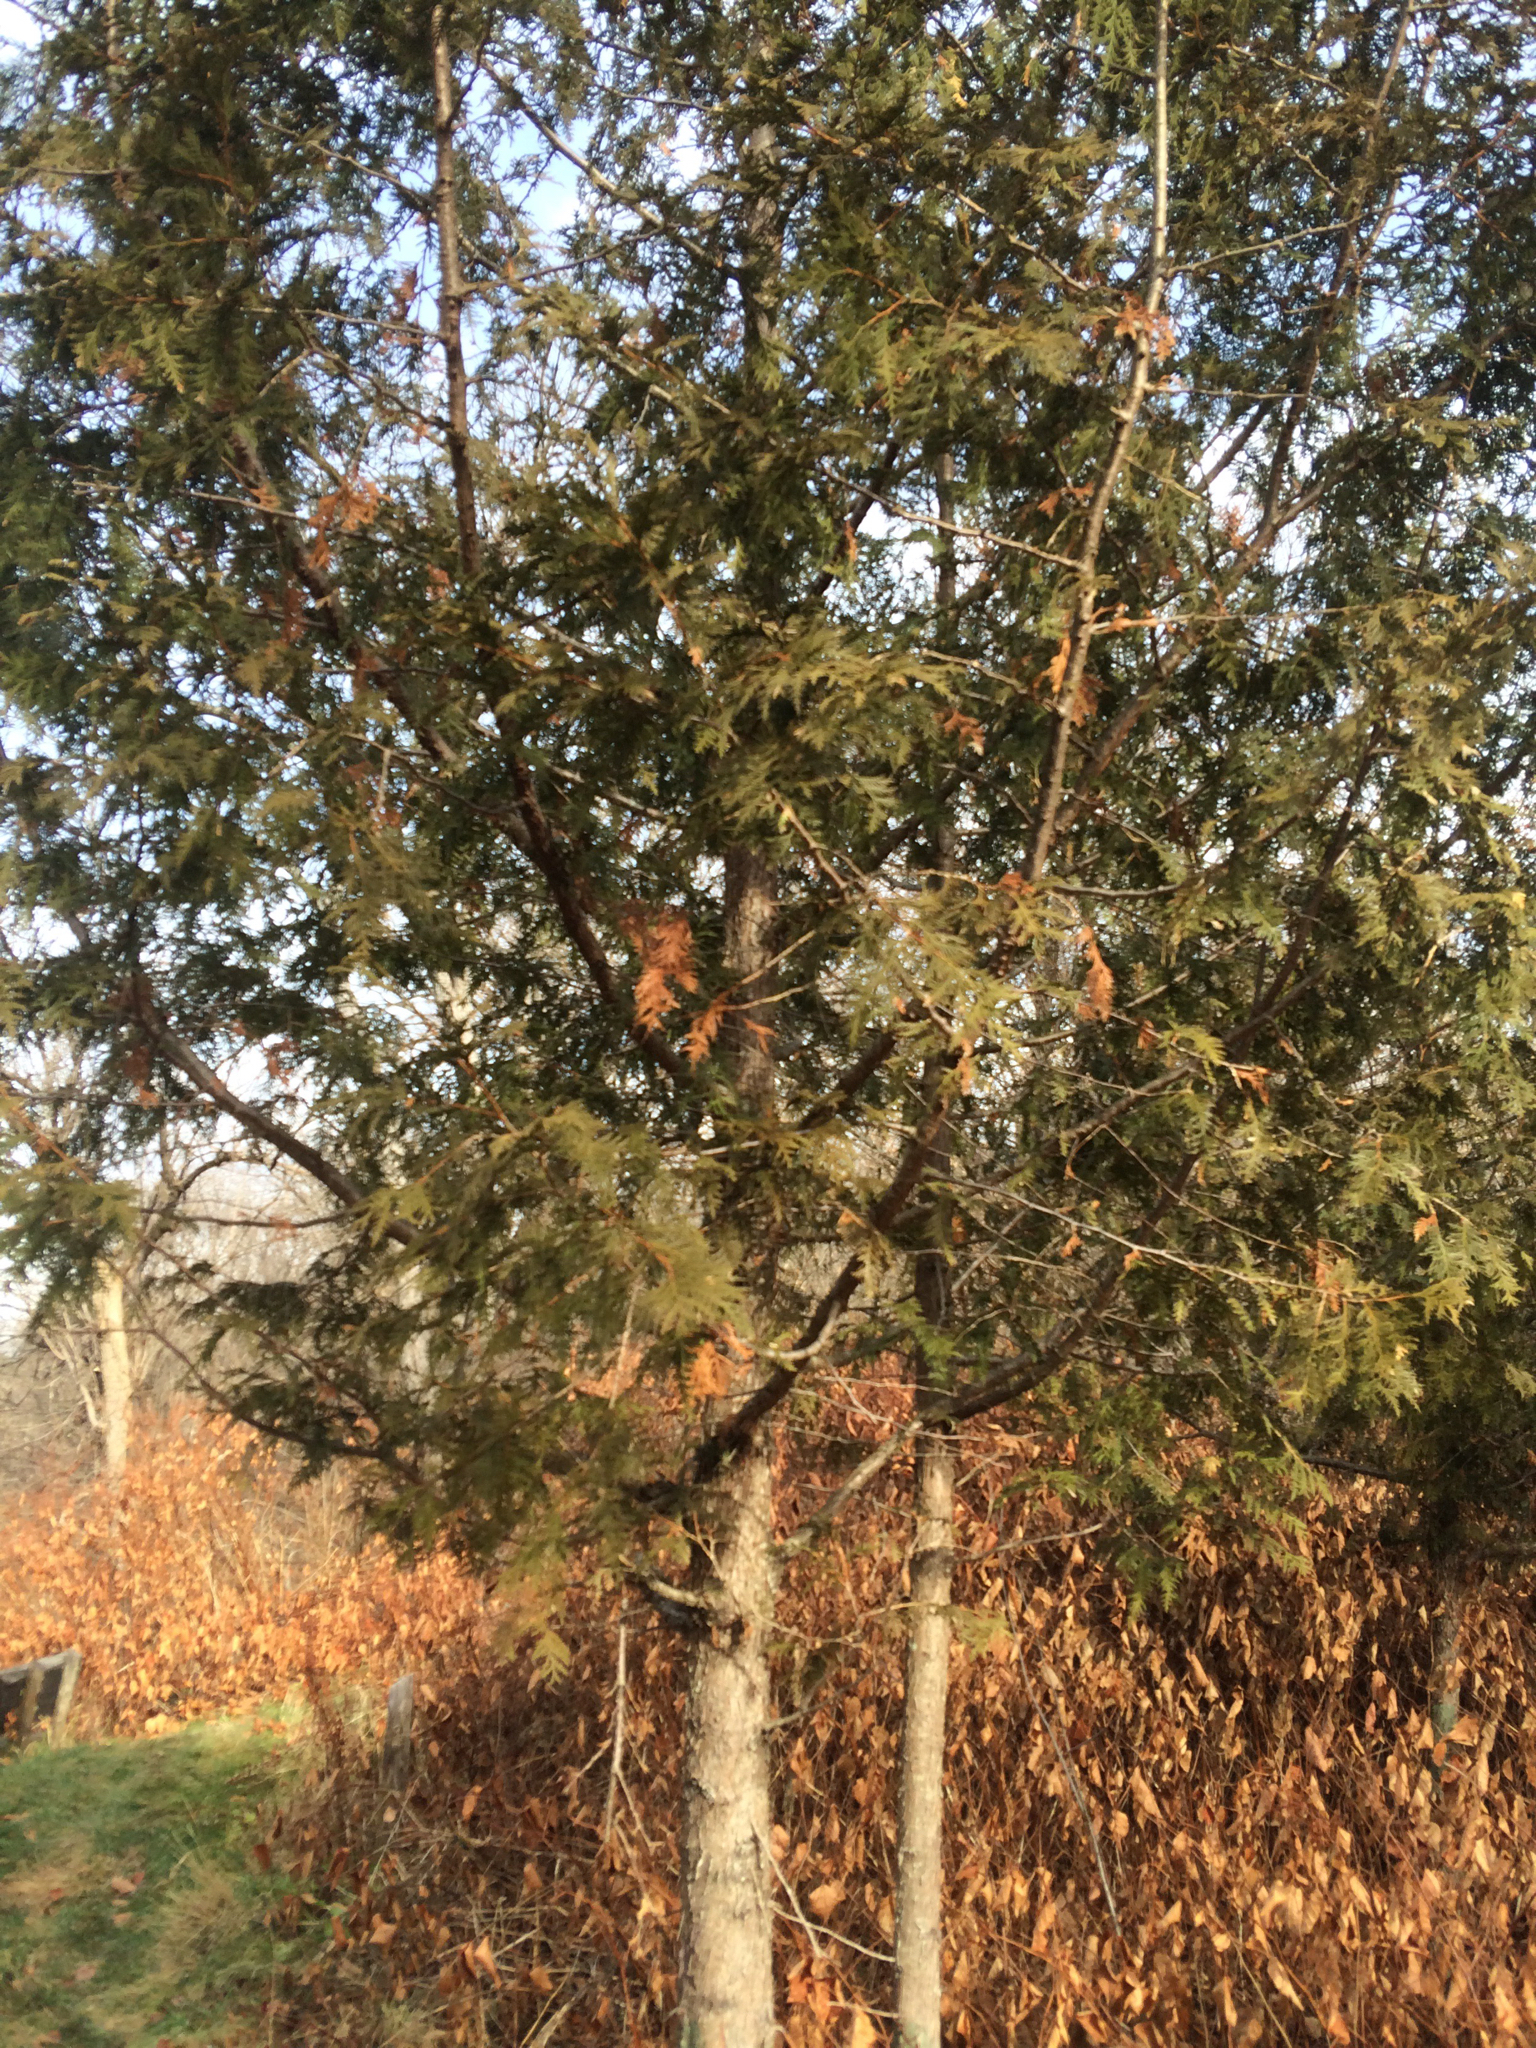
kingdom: Plantae
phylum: Tracheophyta
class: Pinopsida
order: Pinales
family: Cupressaceae
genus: Thuja
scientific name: Thuja occidentalis
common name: Northern white-cedar
